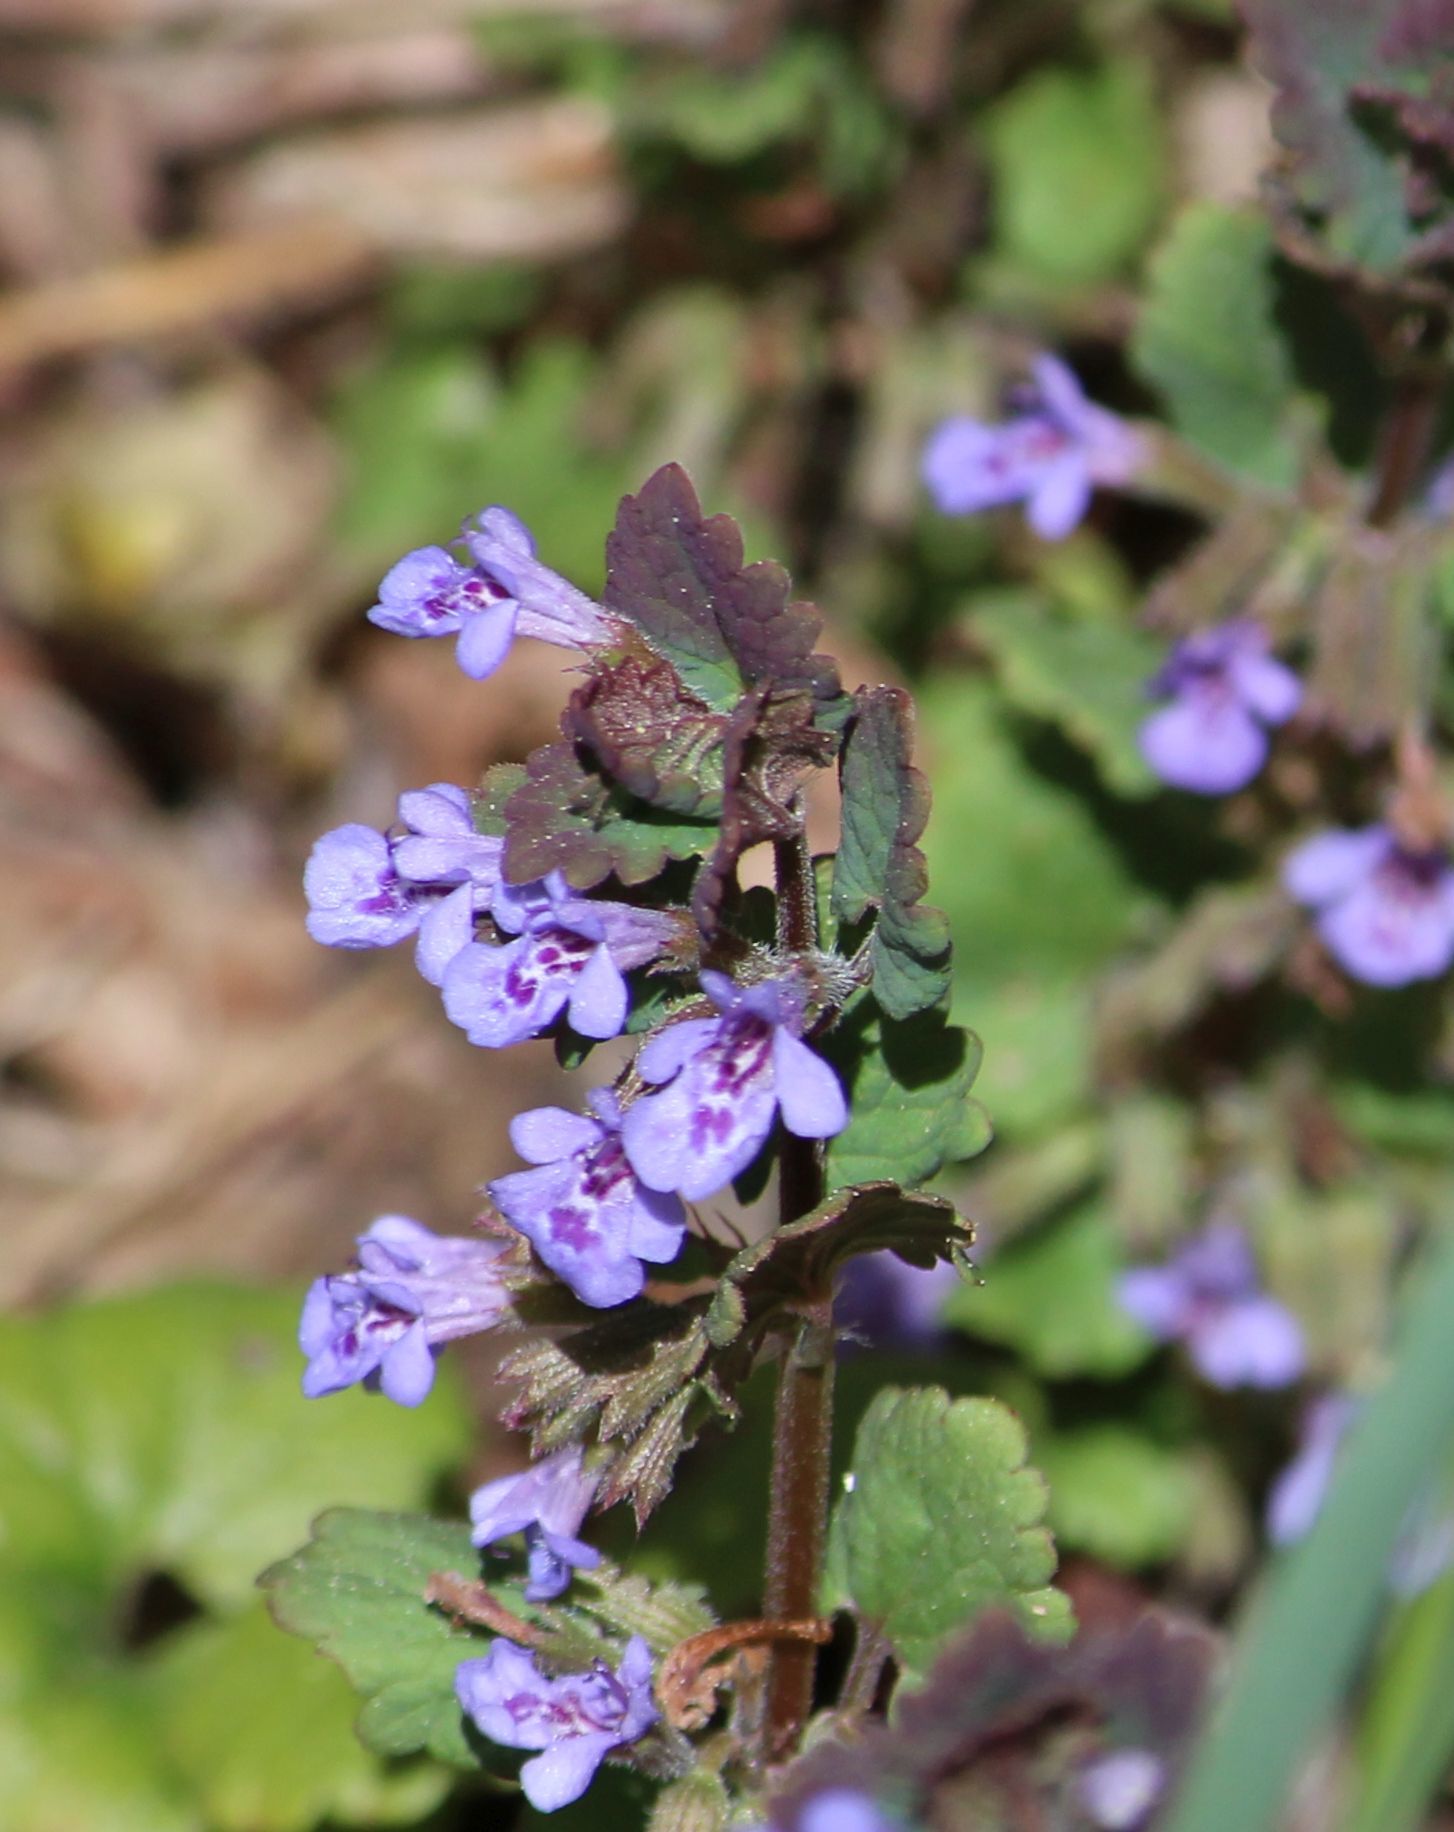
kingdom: Plantae
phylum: Tracheophyta
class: Magnoliopsida
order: Lamiales
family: Lamiaceae
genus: Glechoma
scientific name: Glechoma hederacea
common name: Ground ivy
